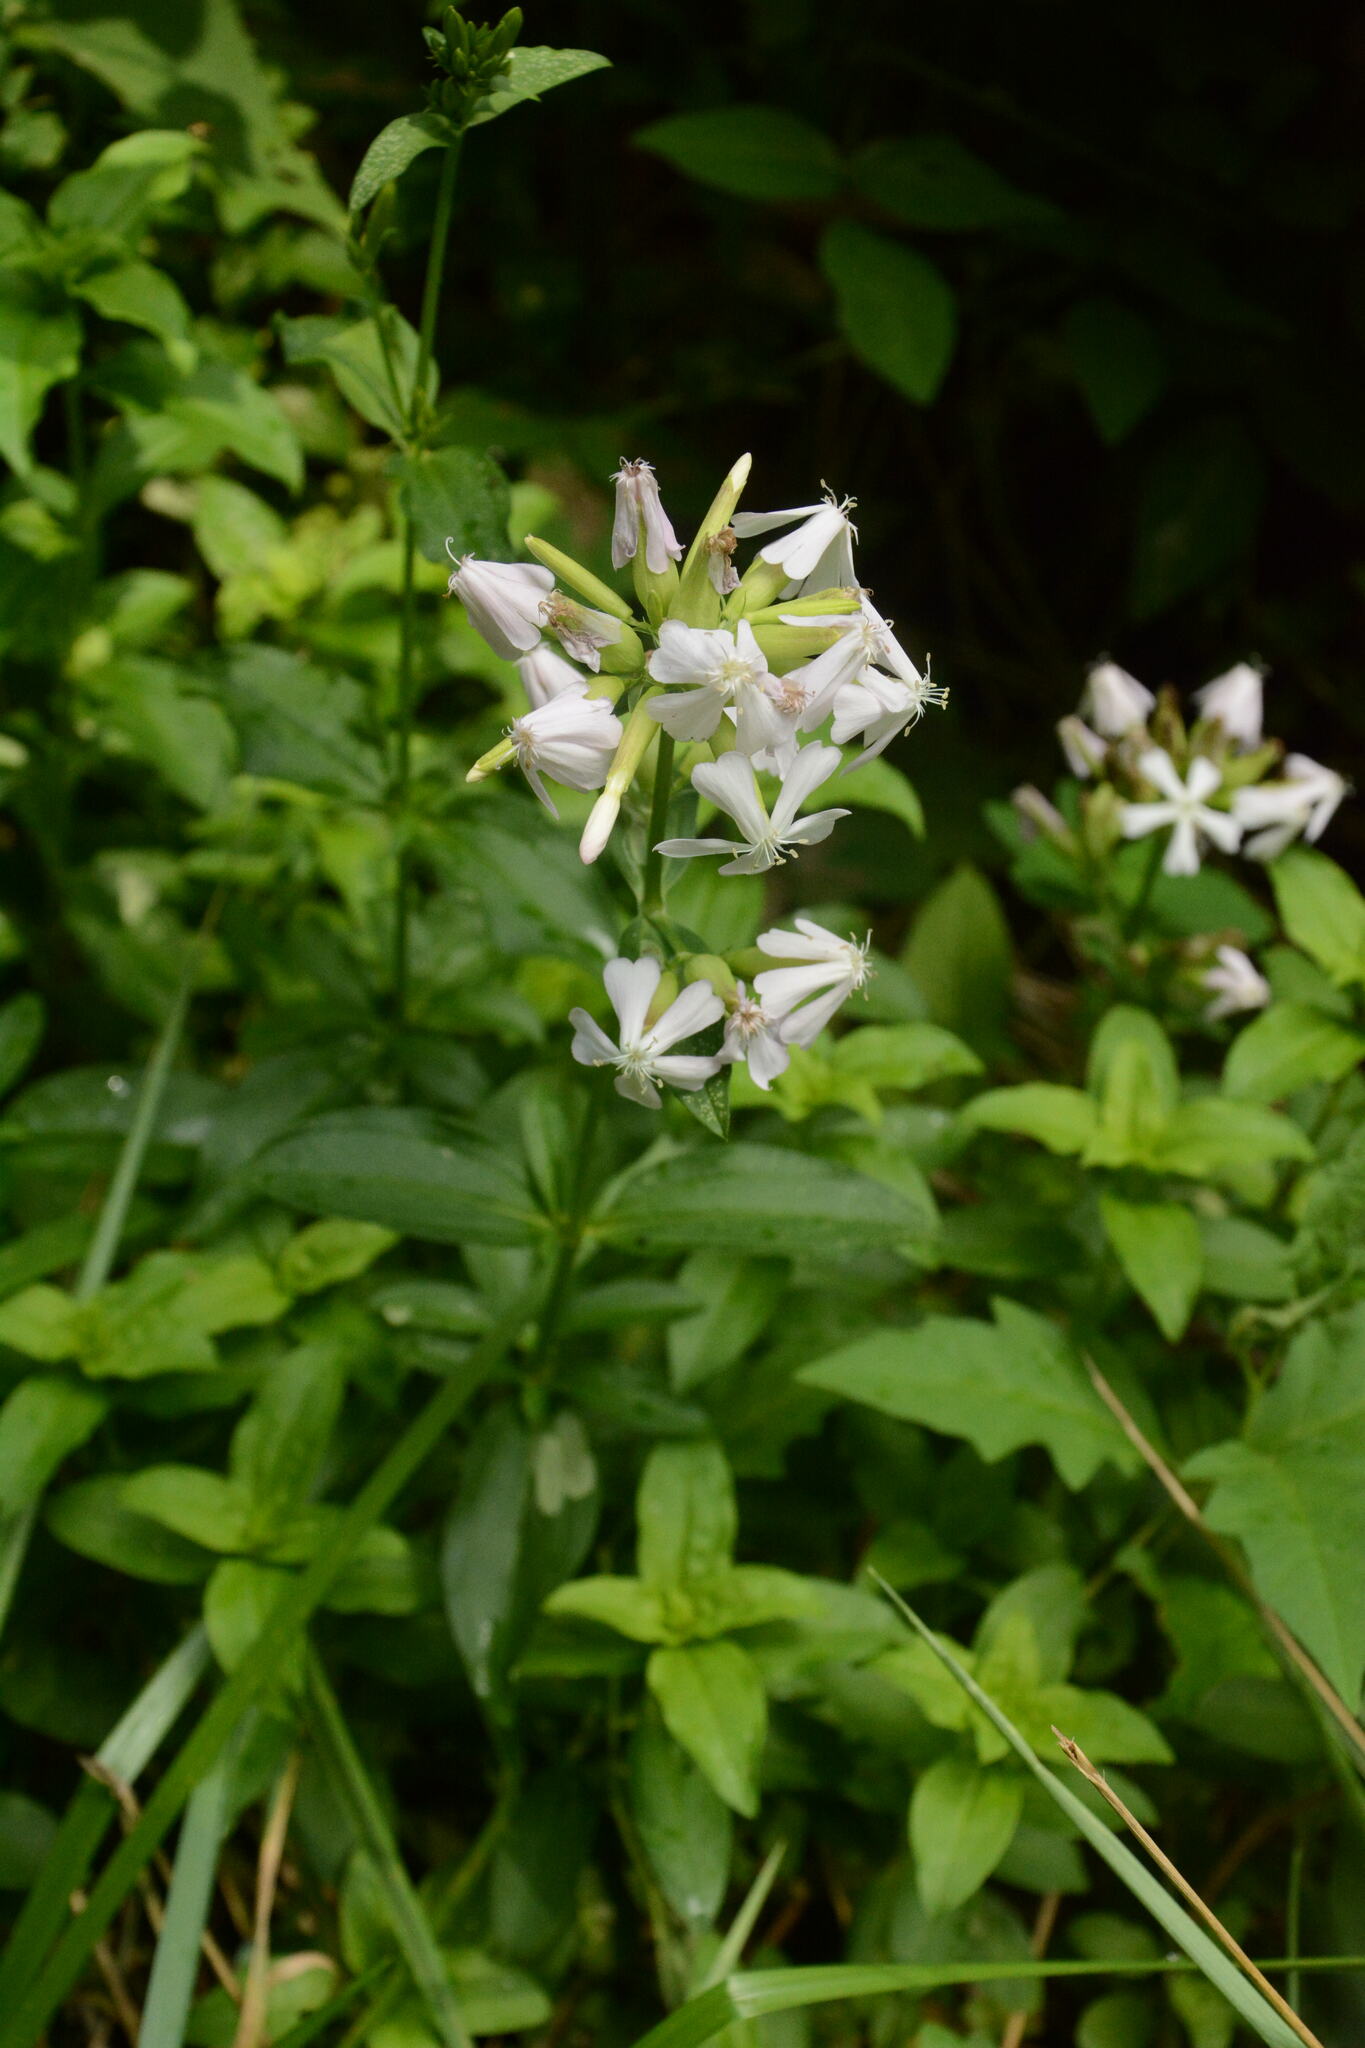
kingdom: Plantae
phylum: Tracheophyta
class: Magnoliopsida
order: Caryophyllales
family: Caryophyllaceae
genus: Saponaria
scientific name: Saponaria officinalis
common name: Soapwort
